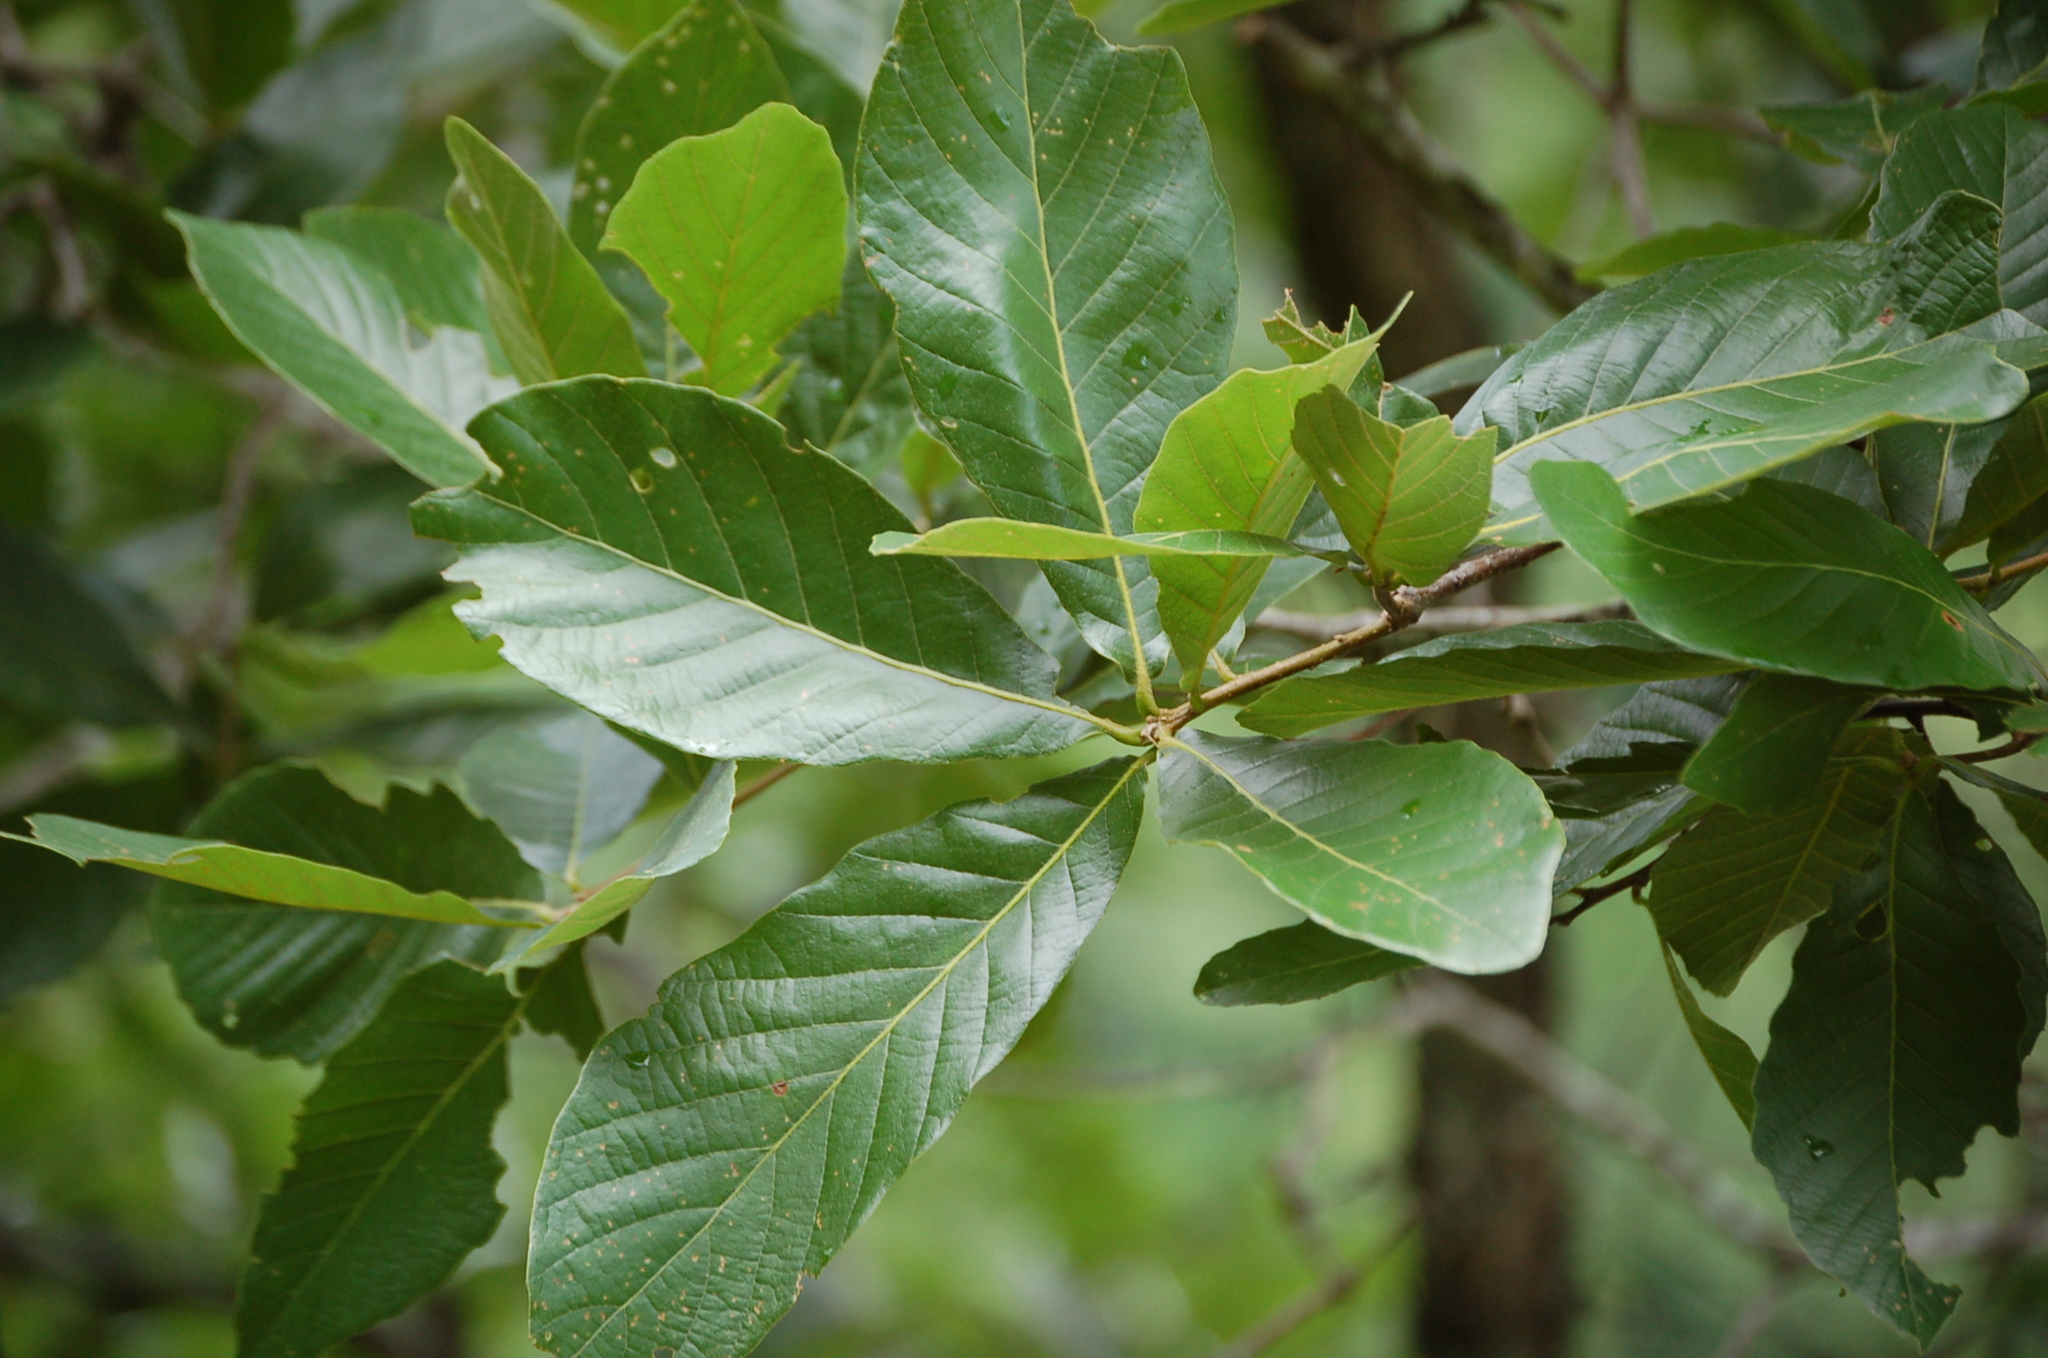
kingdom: Plantae
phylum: Tracheophyta
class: Magnoliopsida
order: Fagales
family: Fagaceae
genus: Quercus
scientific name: Quercus purulhana
